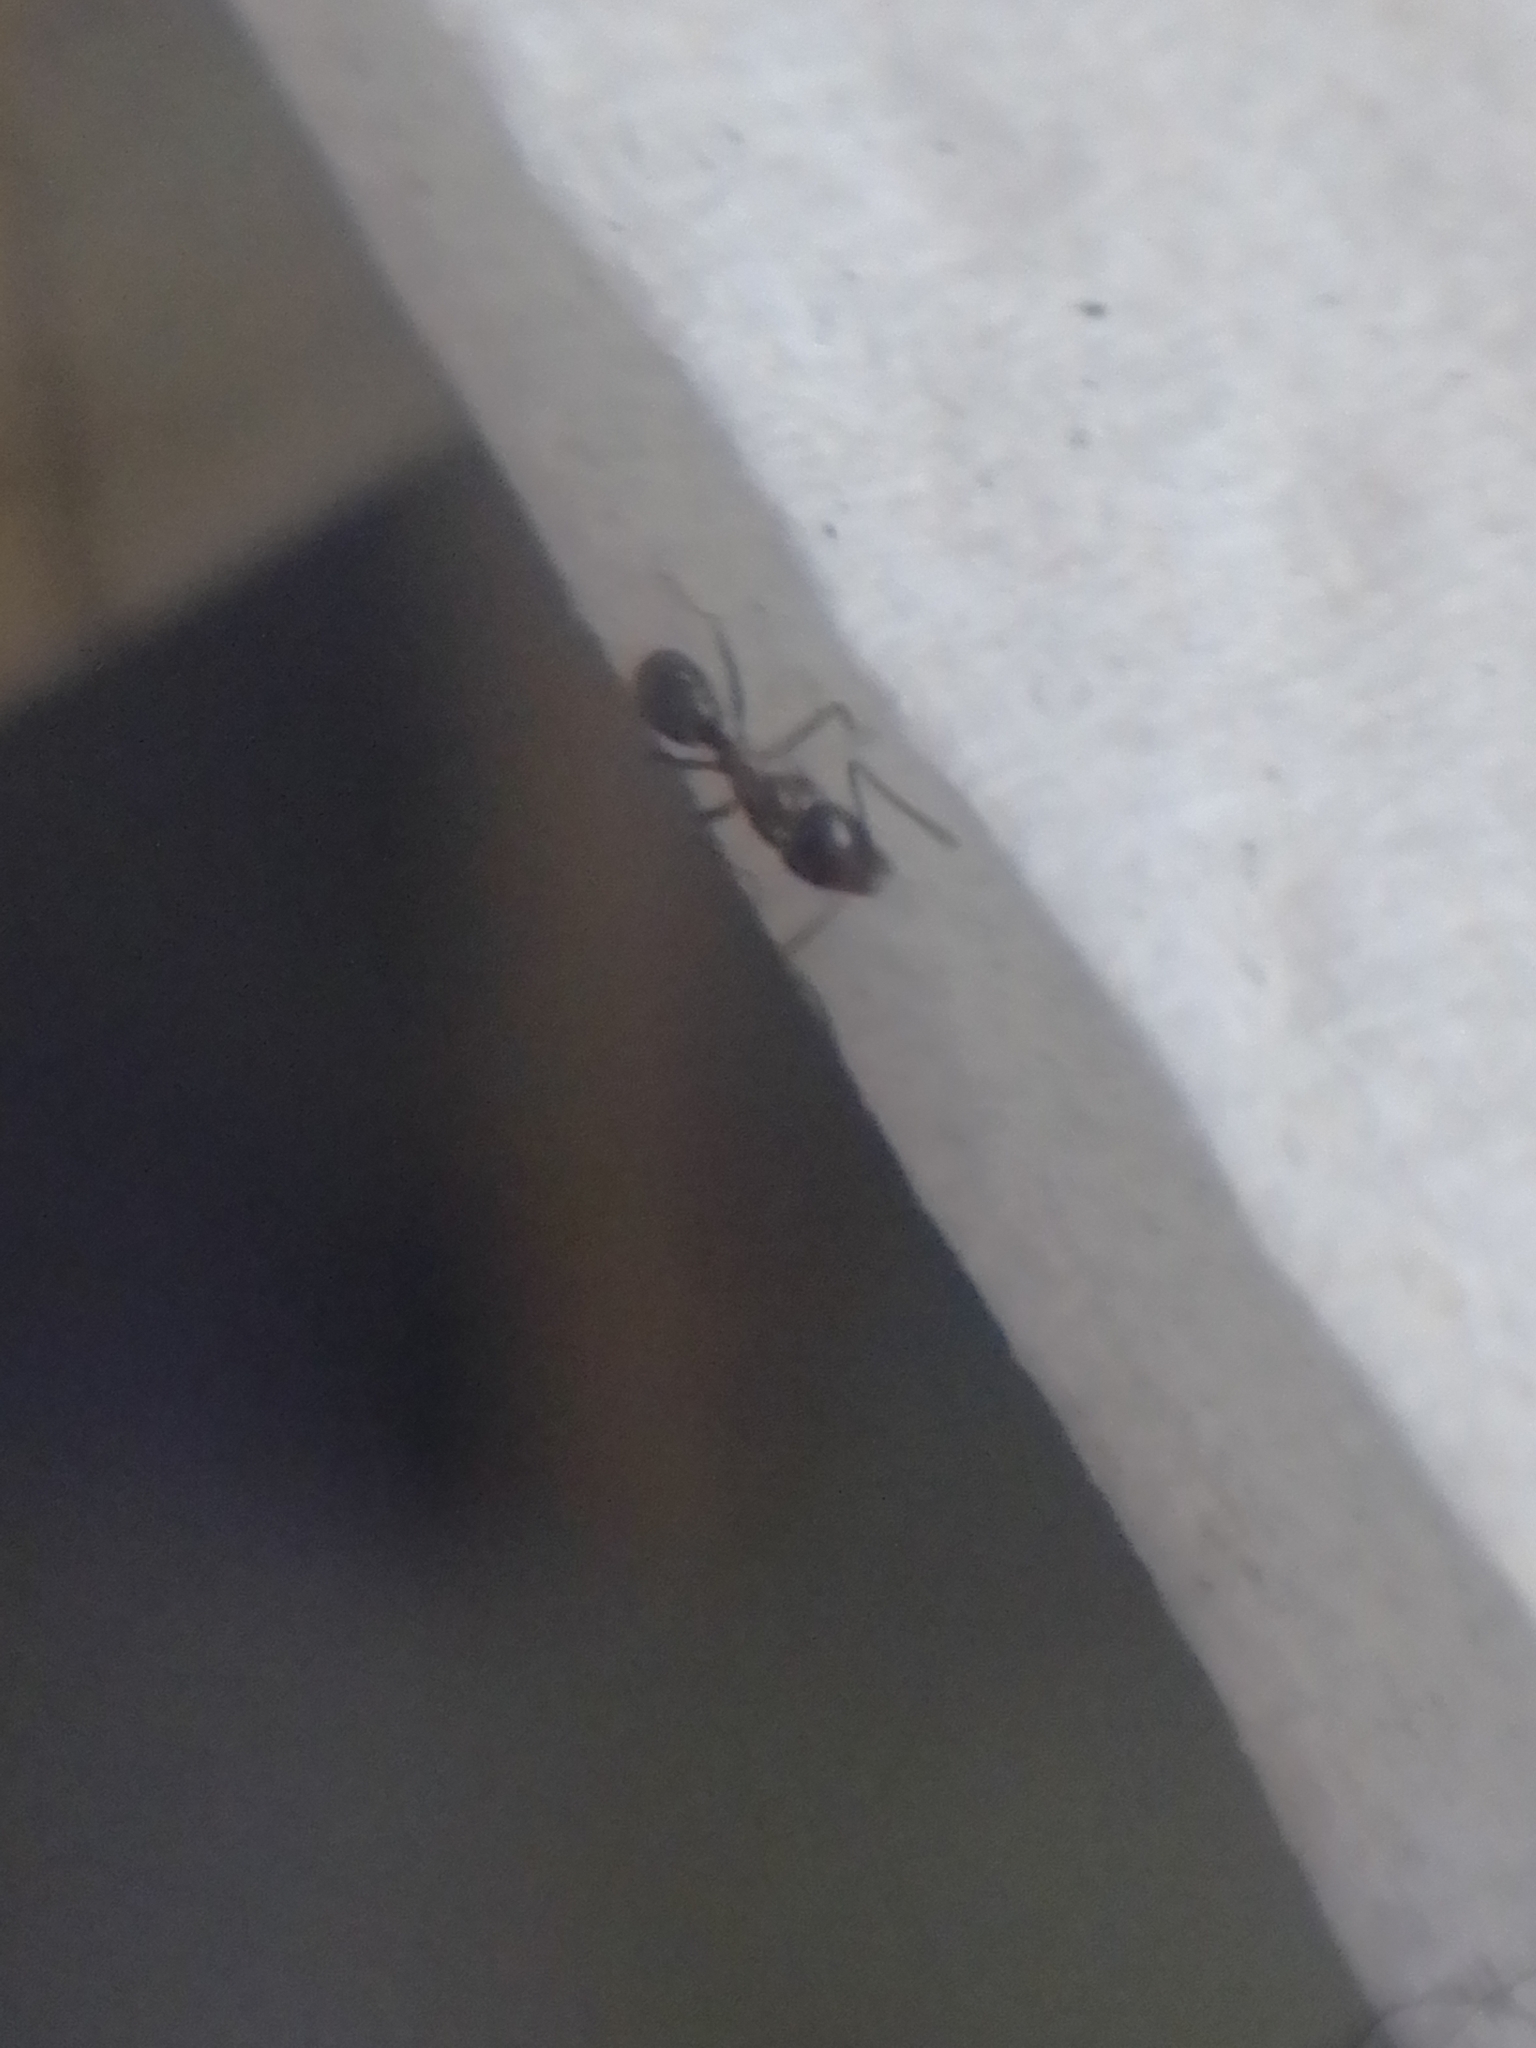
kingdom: Animalia
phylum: Arthropoda
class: Insecta
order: Hymenoptera
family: Formicidae
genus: Linepithema
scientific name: Linepithema humile
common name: Argentine ant
